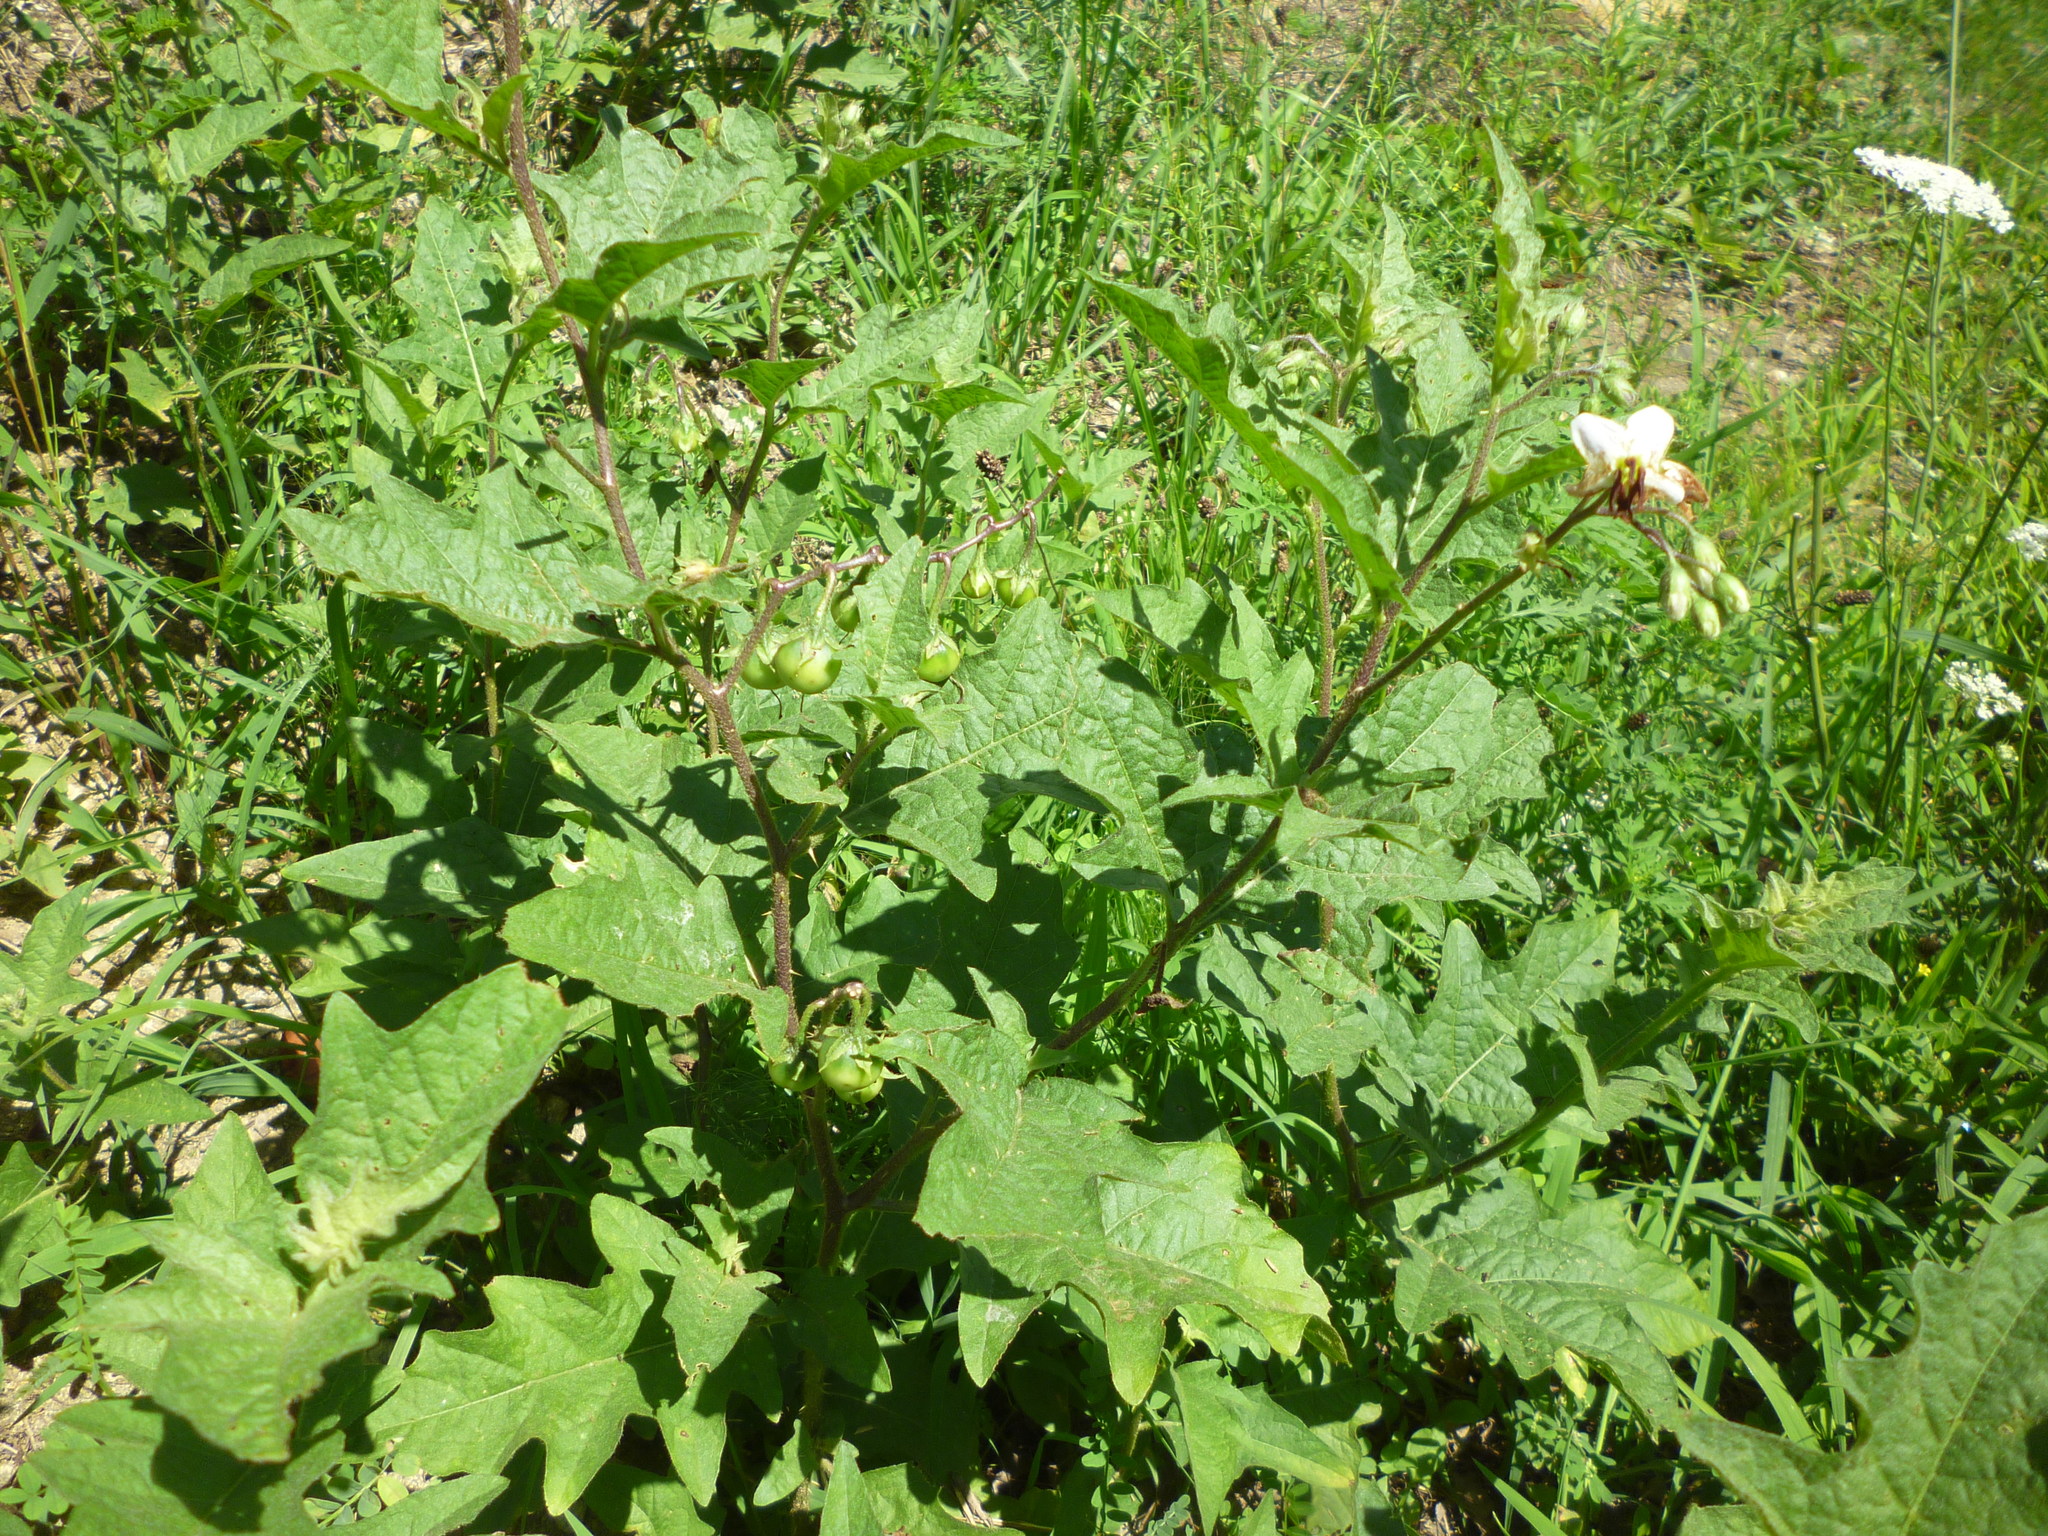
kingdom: Plantae
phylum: Tracheophyta
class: Magnoliopsida
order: Solanales
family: Solanaceae
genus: Solanum
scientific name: Solanum carolinense
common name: Horse-nettle
